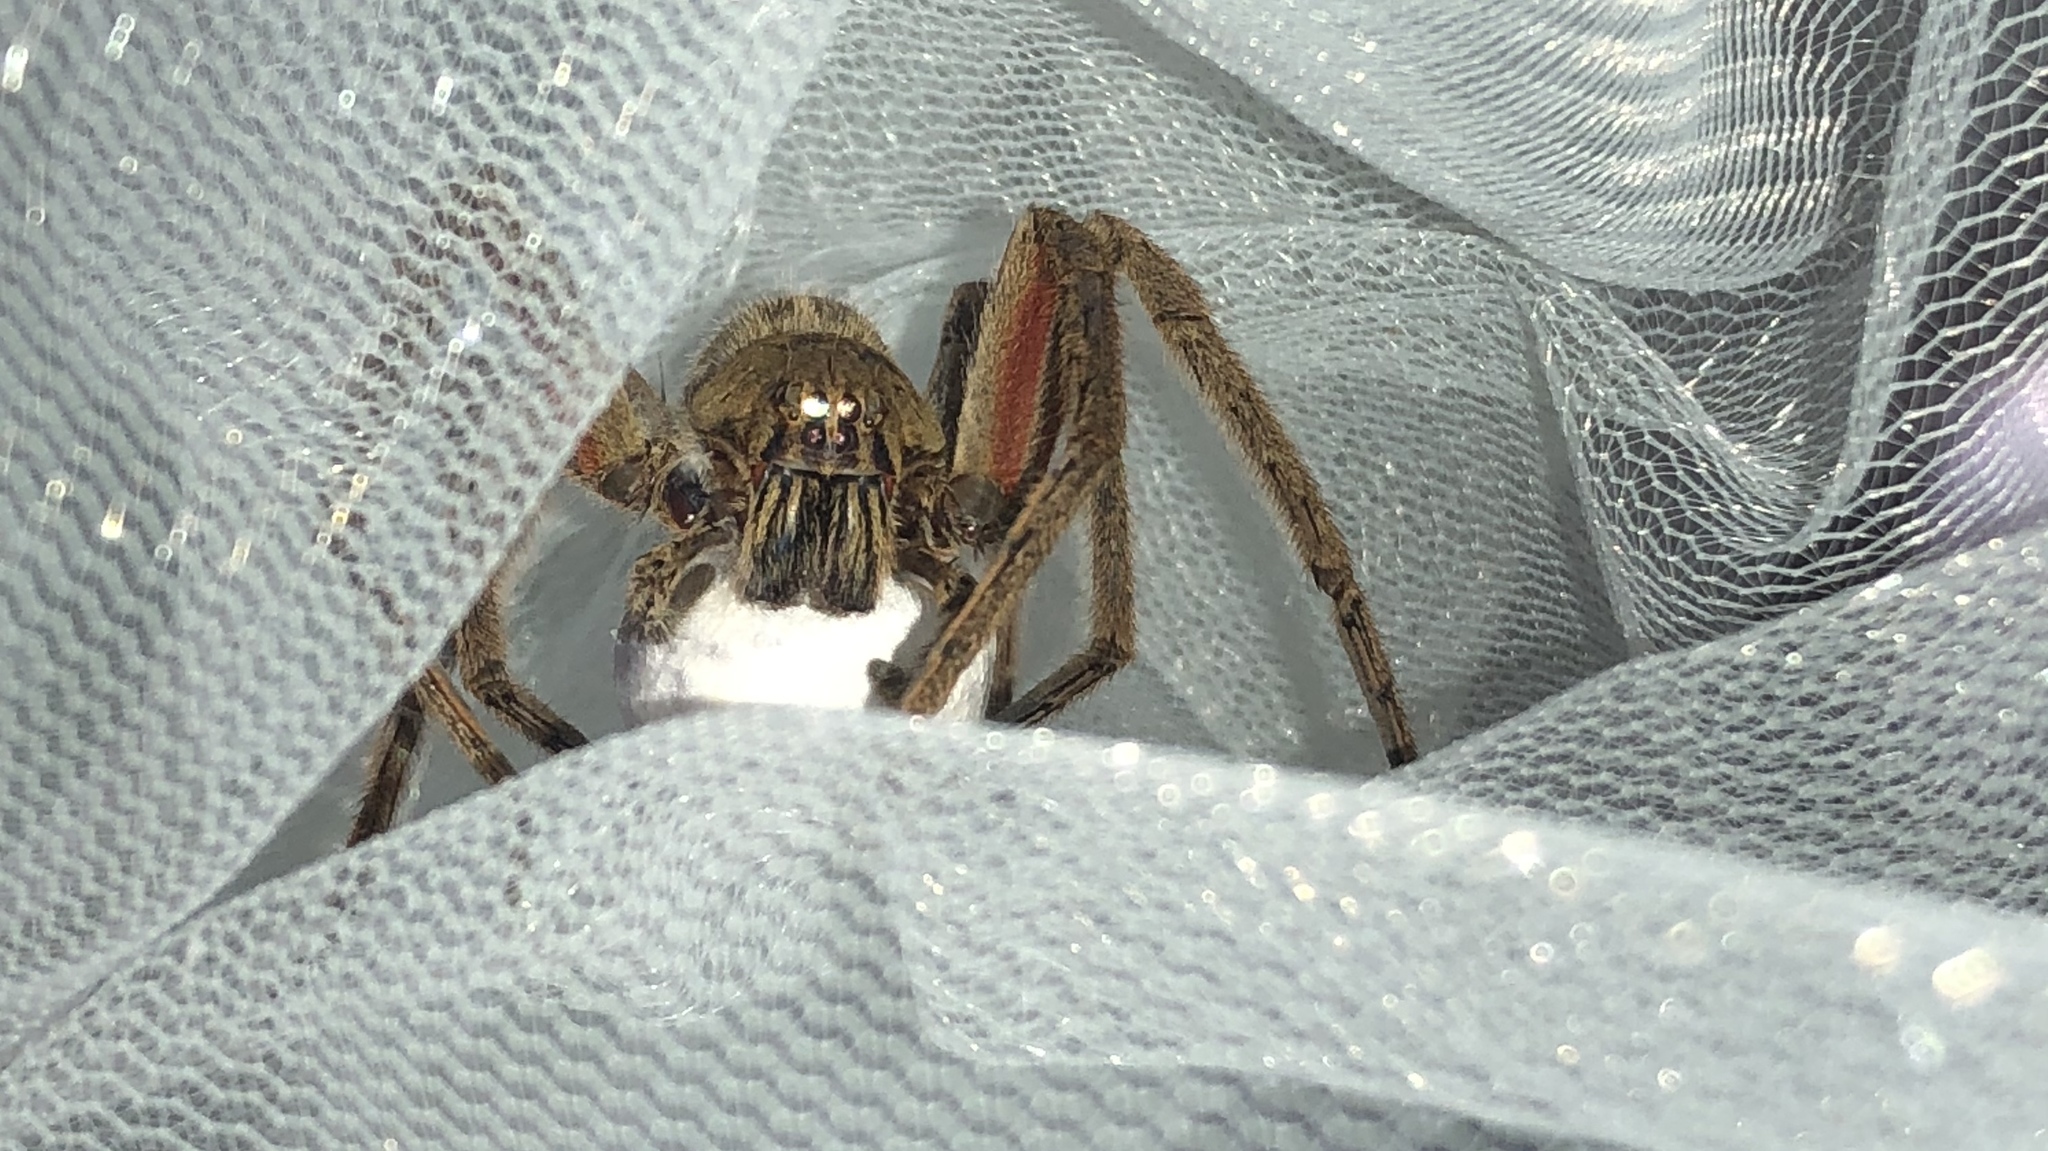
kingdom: Animalia
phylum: Arthropoda
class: Arachnida
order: Araneae
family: Trechaleidae
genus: Cupiennius
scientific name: Cupiennius coccineus
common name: Wandering spiders
